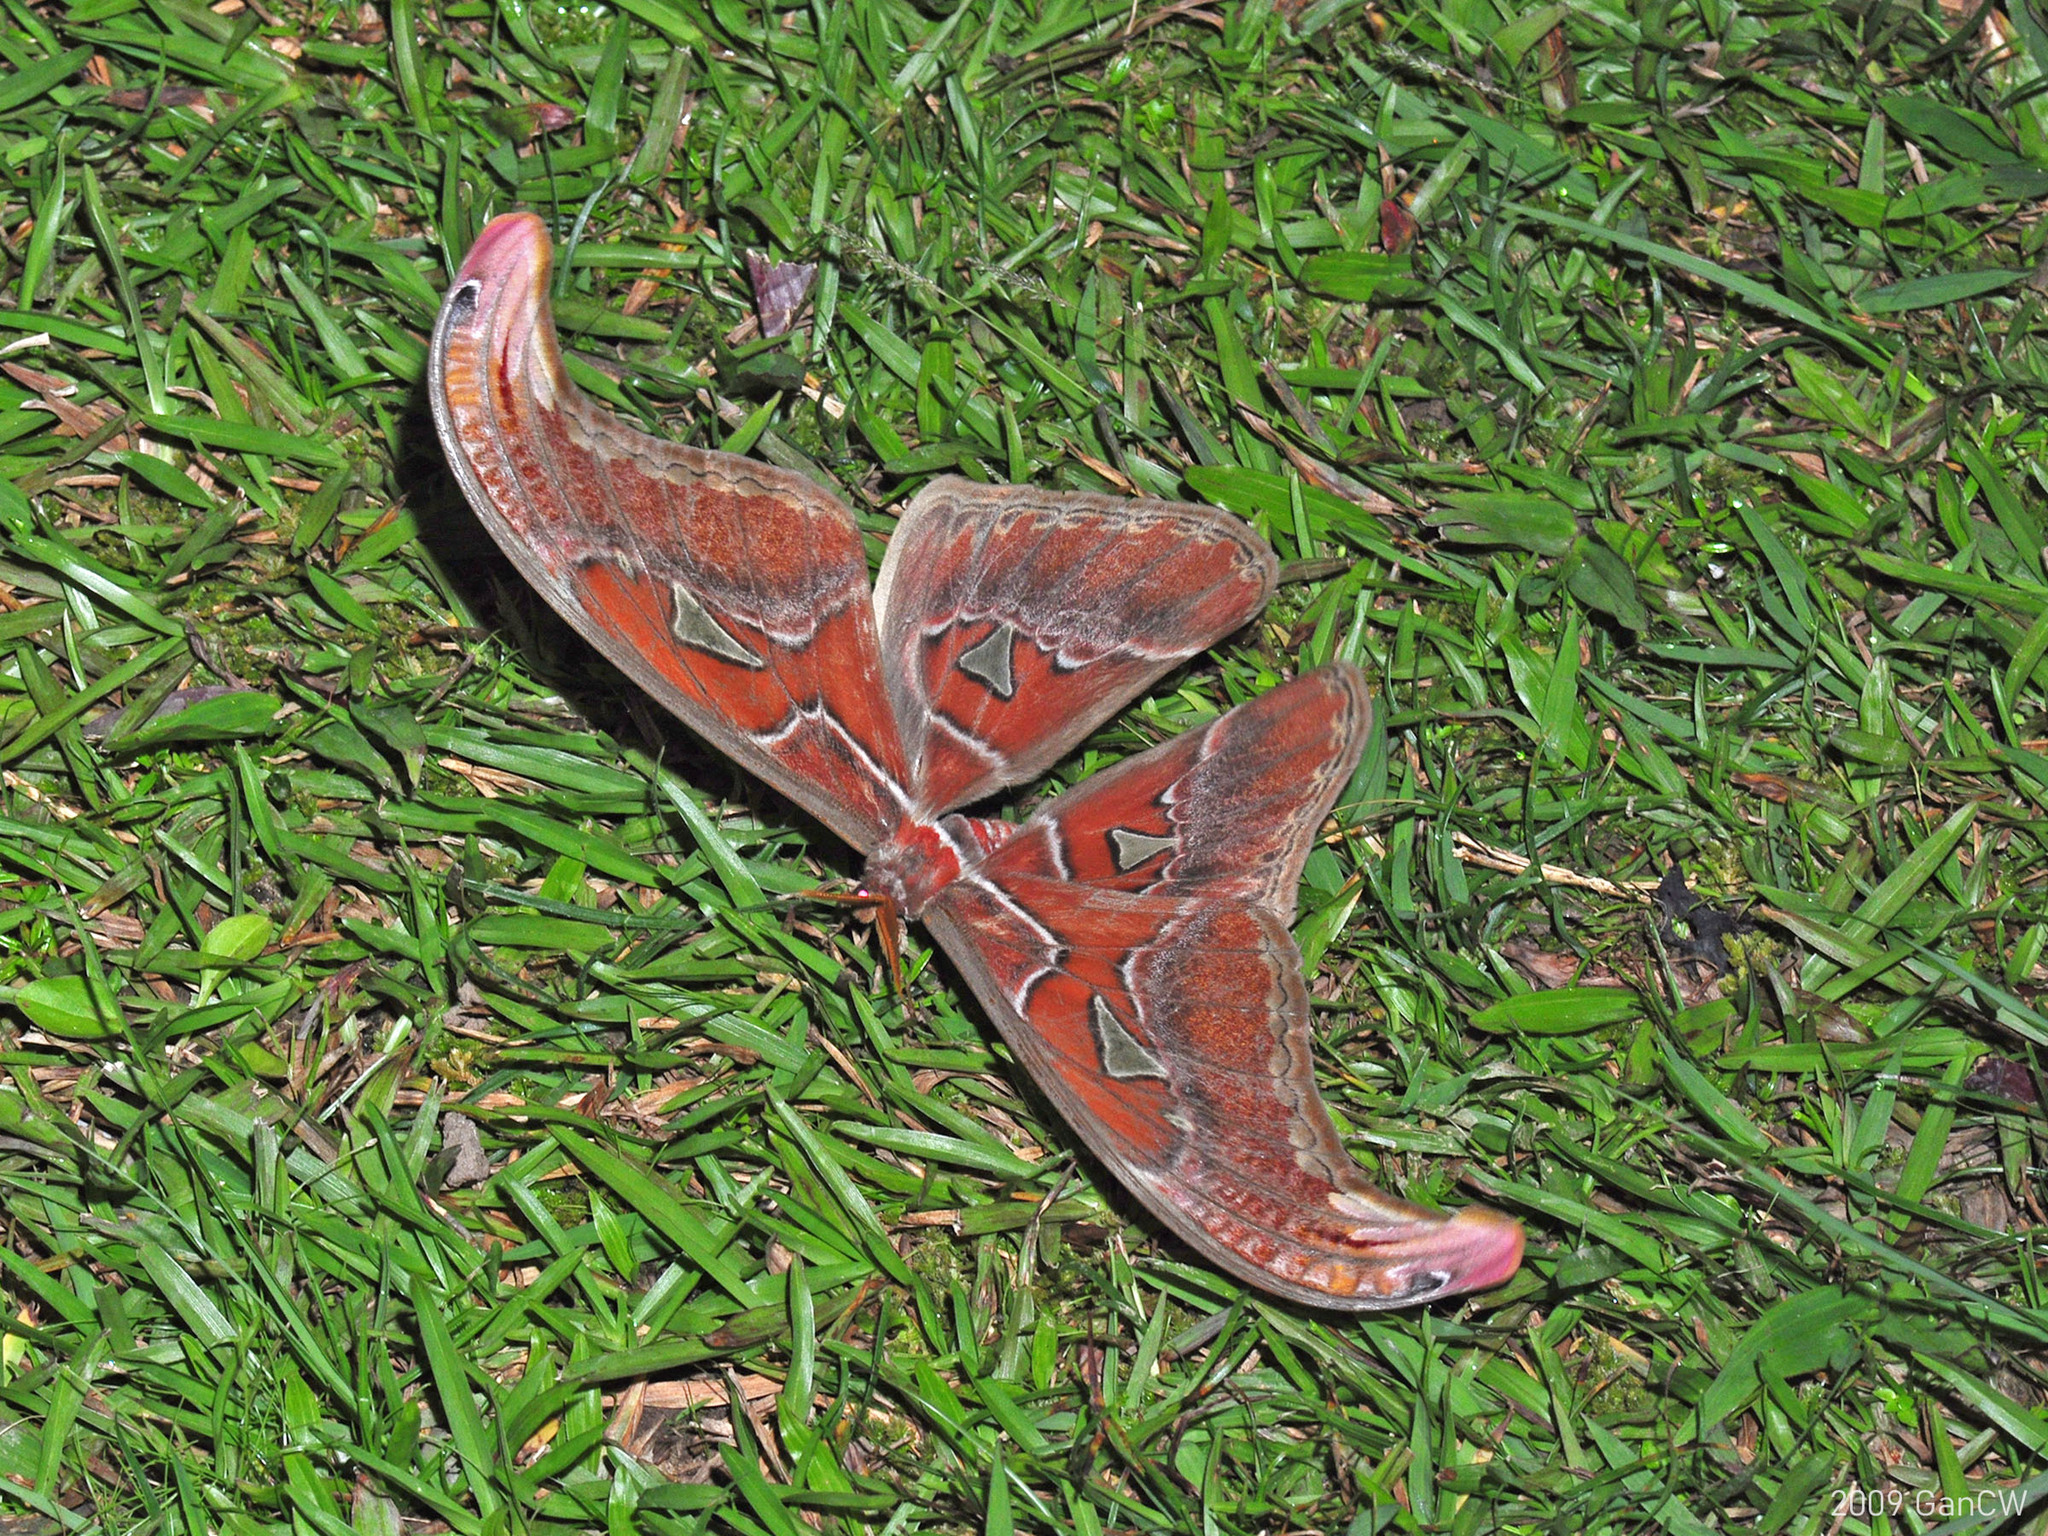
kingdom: Animalia
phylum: Arthropoda
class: Insecta
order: Lepidoptera
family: Saturniidae
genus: Attacus
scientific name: Attacus atlas
